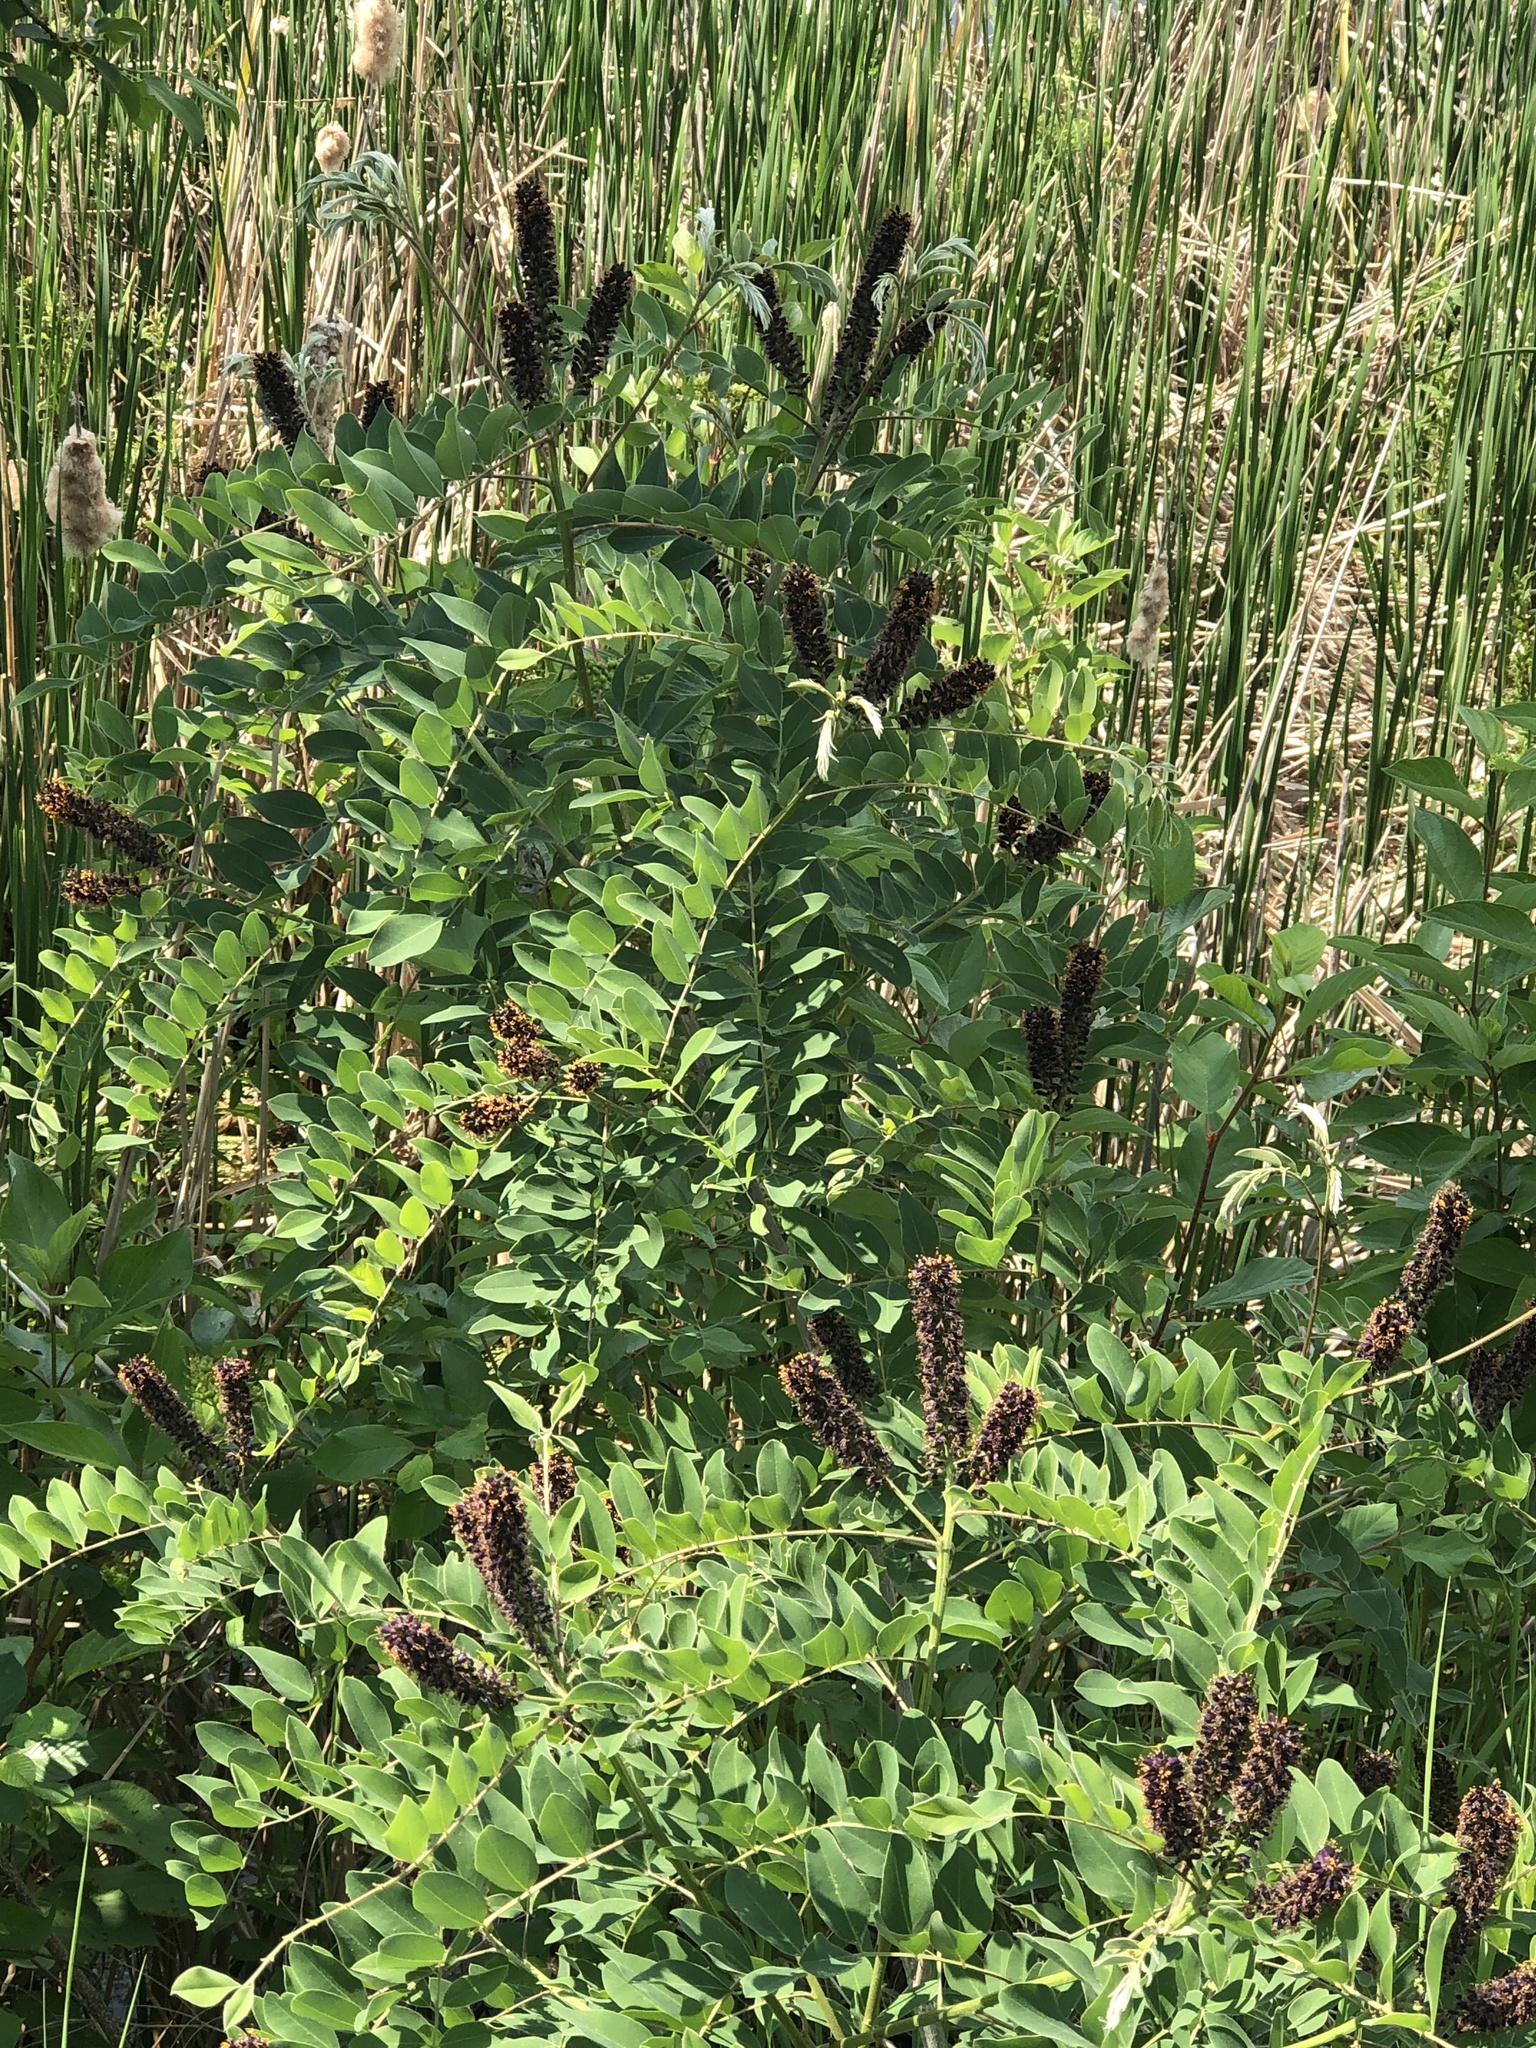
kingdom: Plantae
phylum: Tracheophyta
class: Magnoliopsida
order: Fabales
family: Fabaceae
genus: Amorpha
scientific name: Amorpha fruticosa
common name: False indigo
